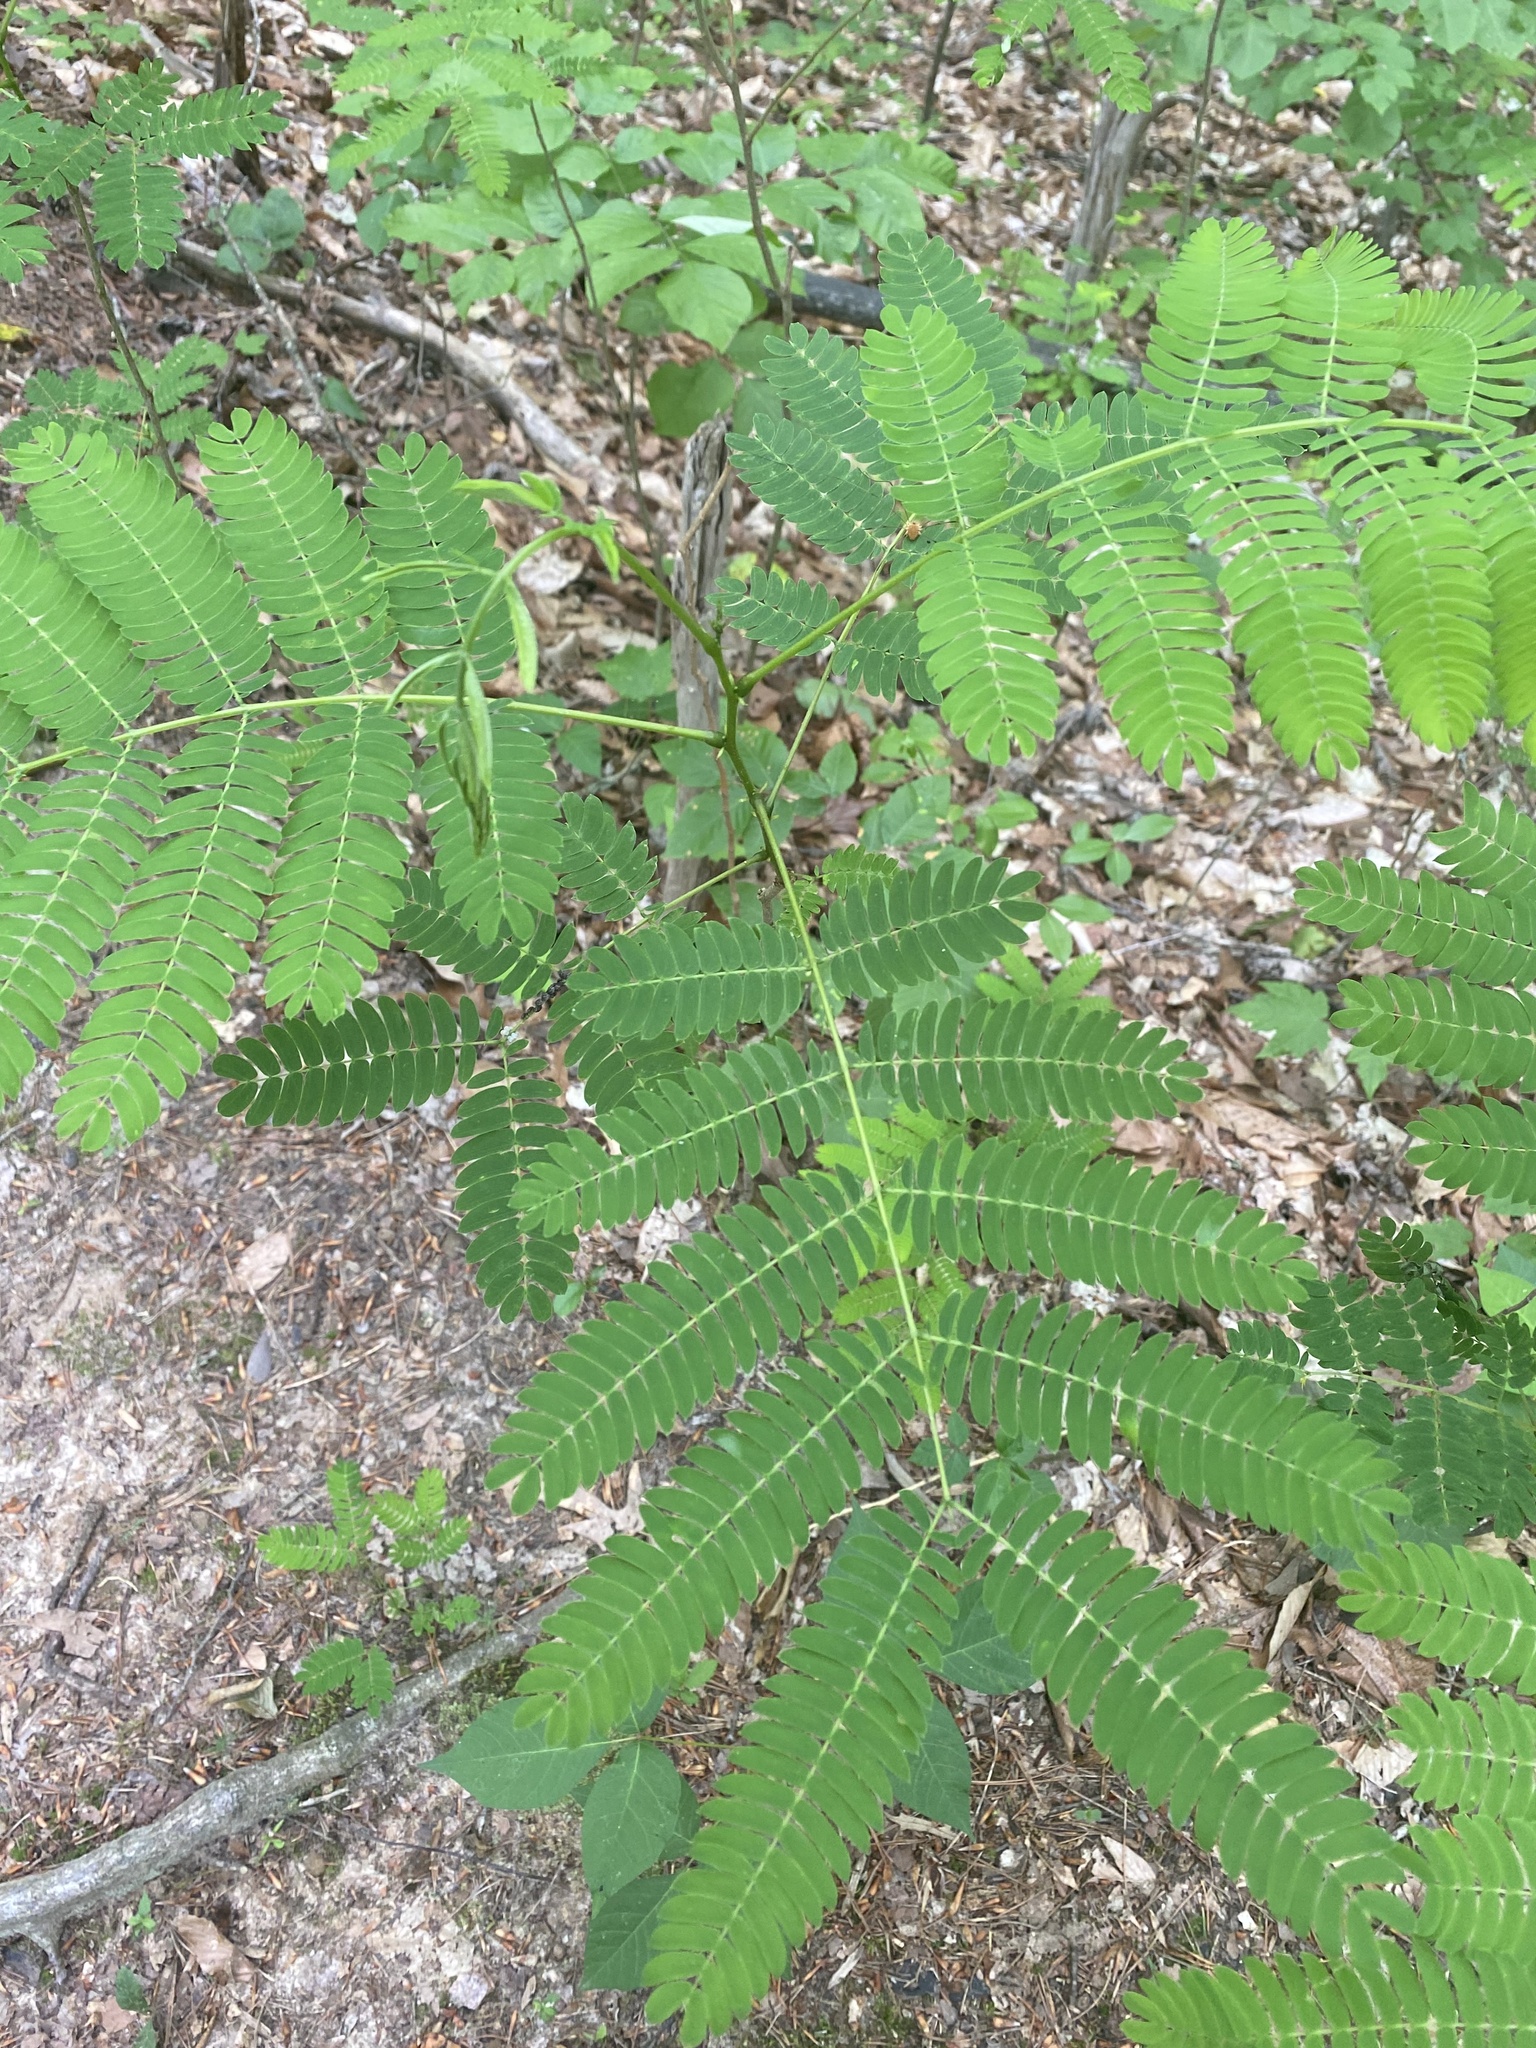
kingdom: Plantae
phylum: Tracheophyta
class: Magnoliopsida
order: Fabales
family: Fabaceae
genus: Albizia
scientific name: Albizia julibrissin
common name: Silktree
